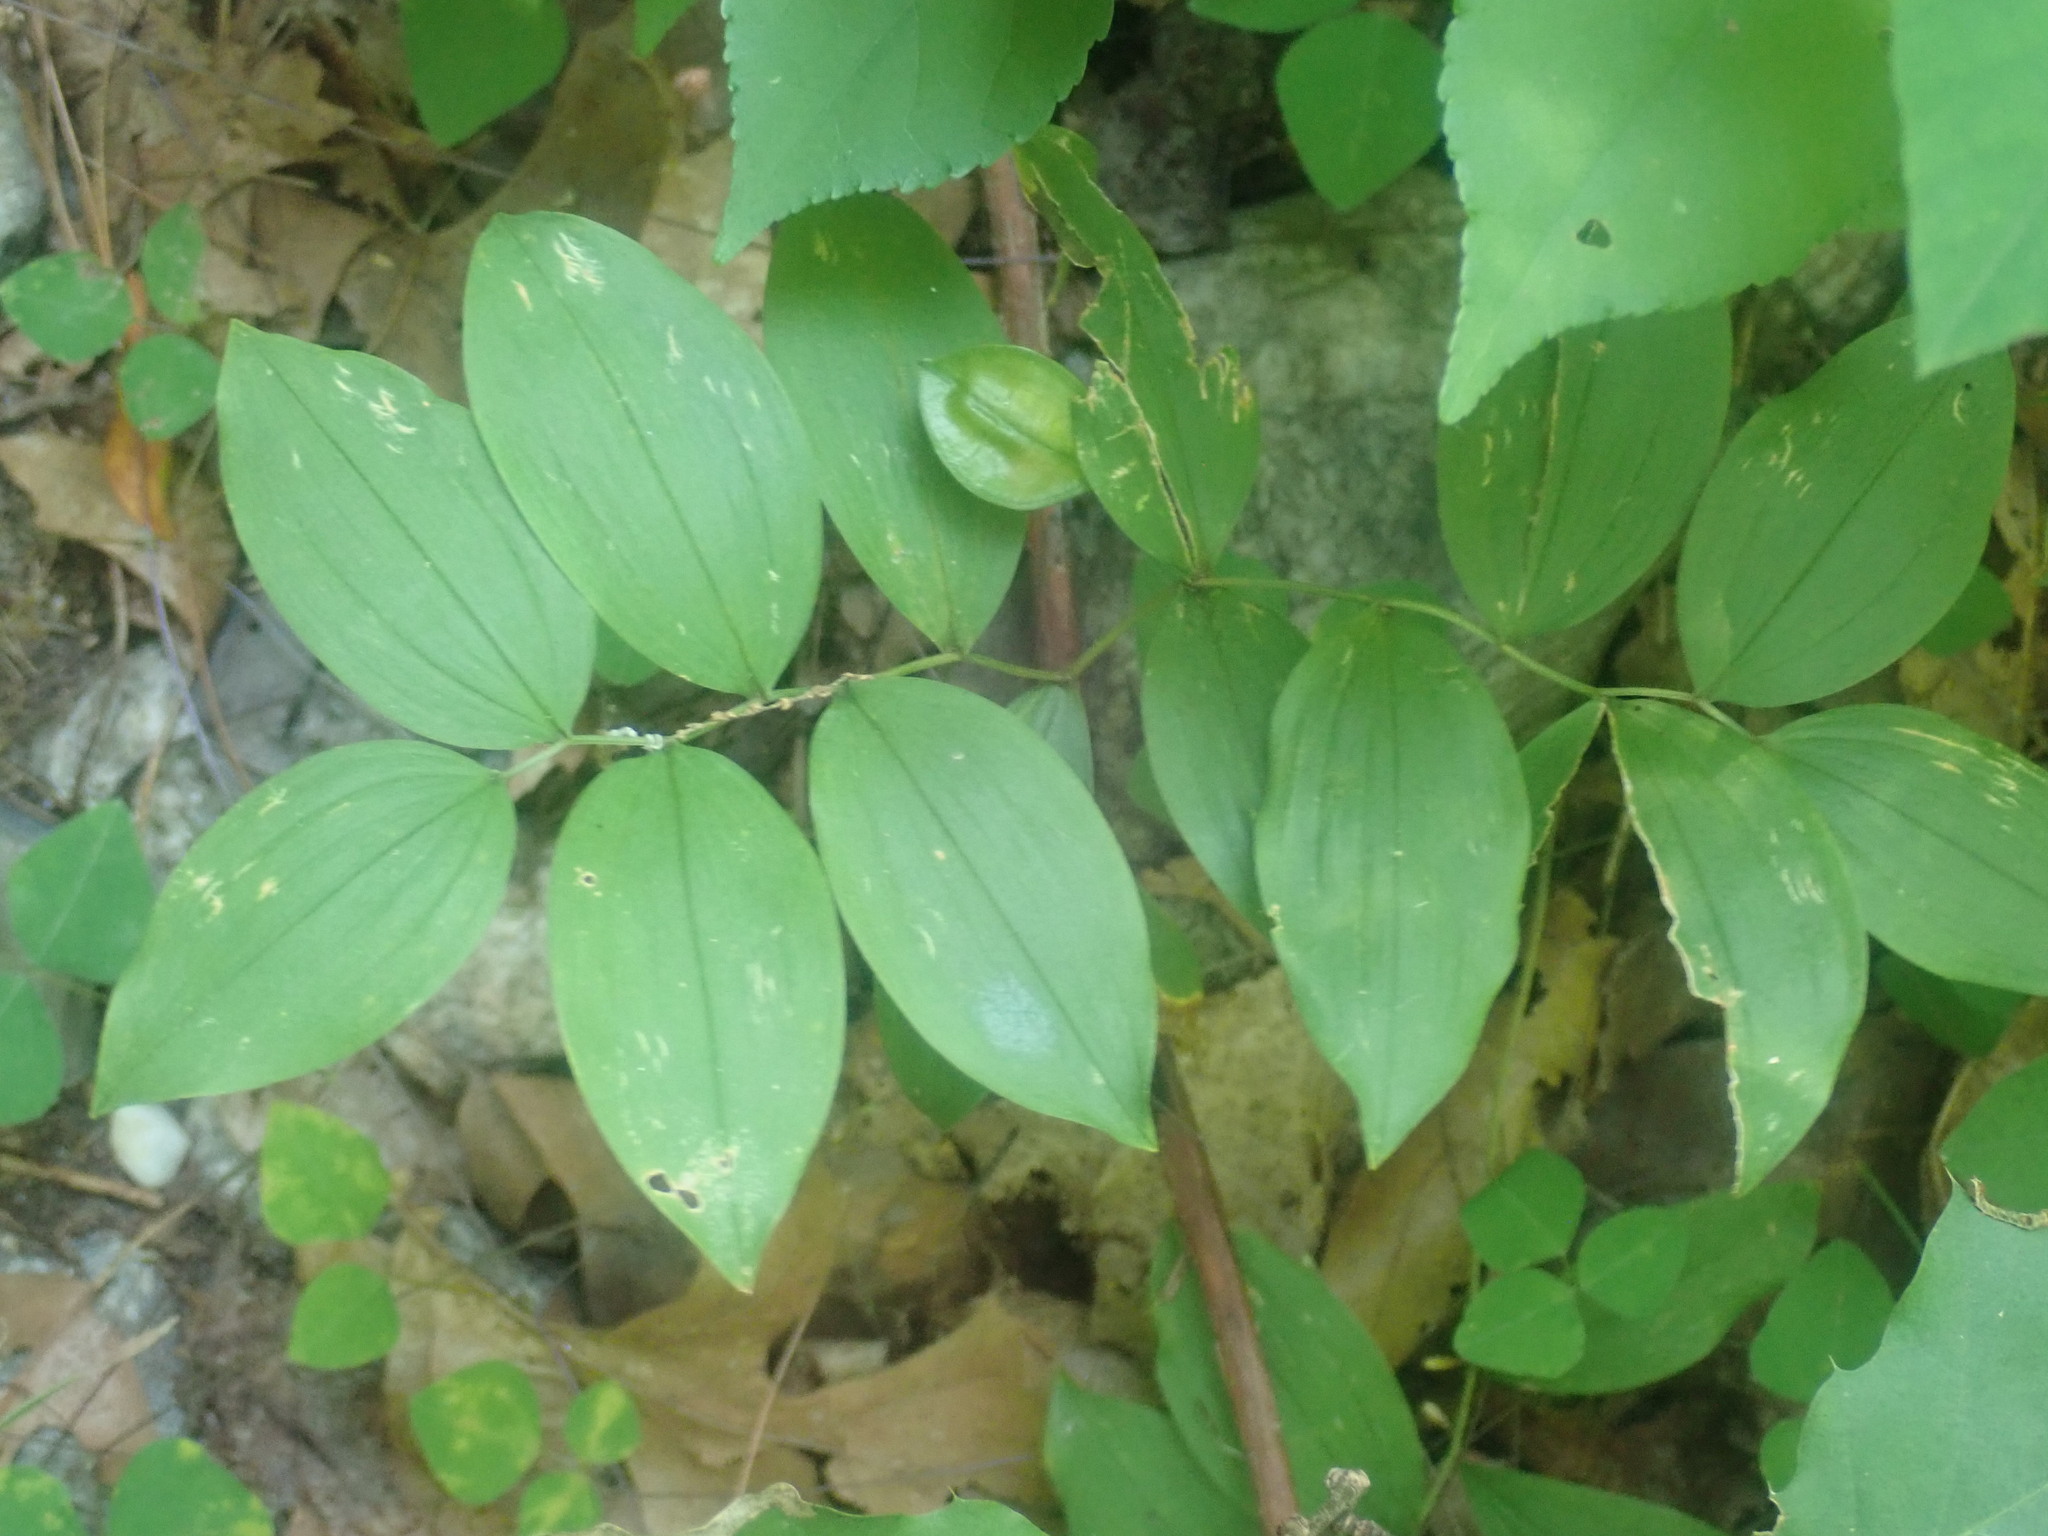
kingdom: Plantae
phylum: Tracheophyta
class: Liliopsida
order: Liliales
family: Colchicaceae
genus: Uvularia
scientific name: Uvularia sessilifolia
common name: Straw-lily
